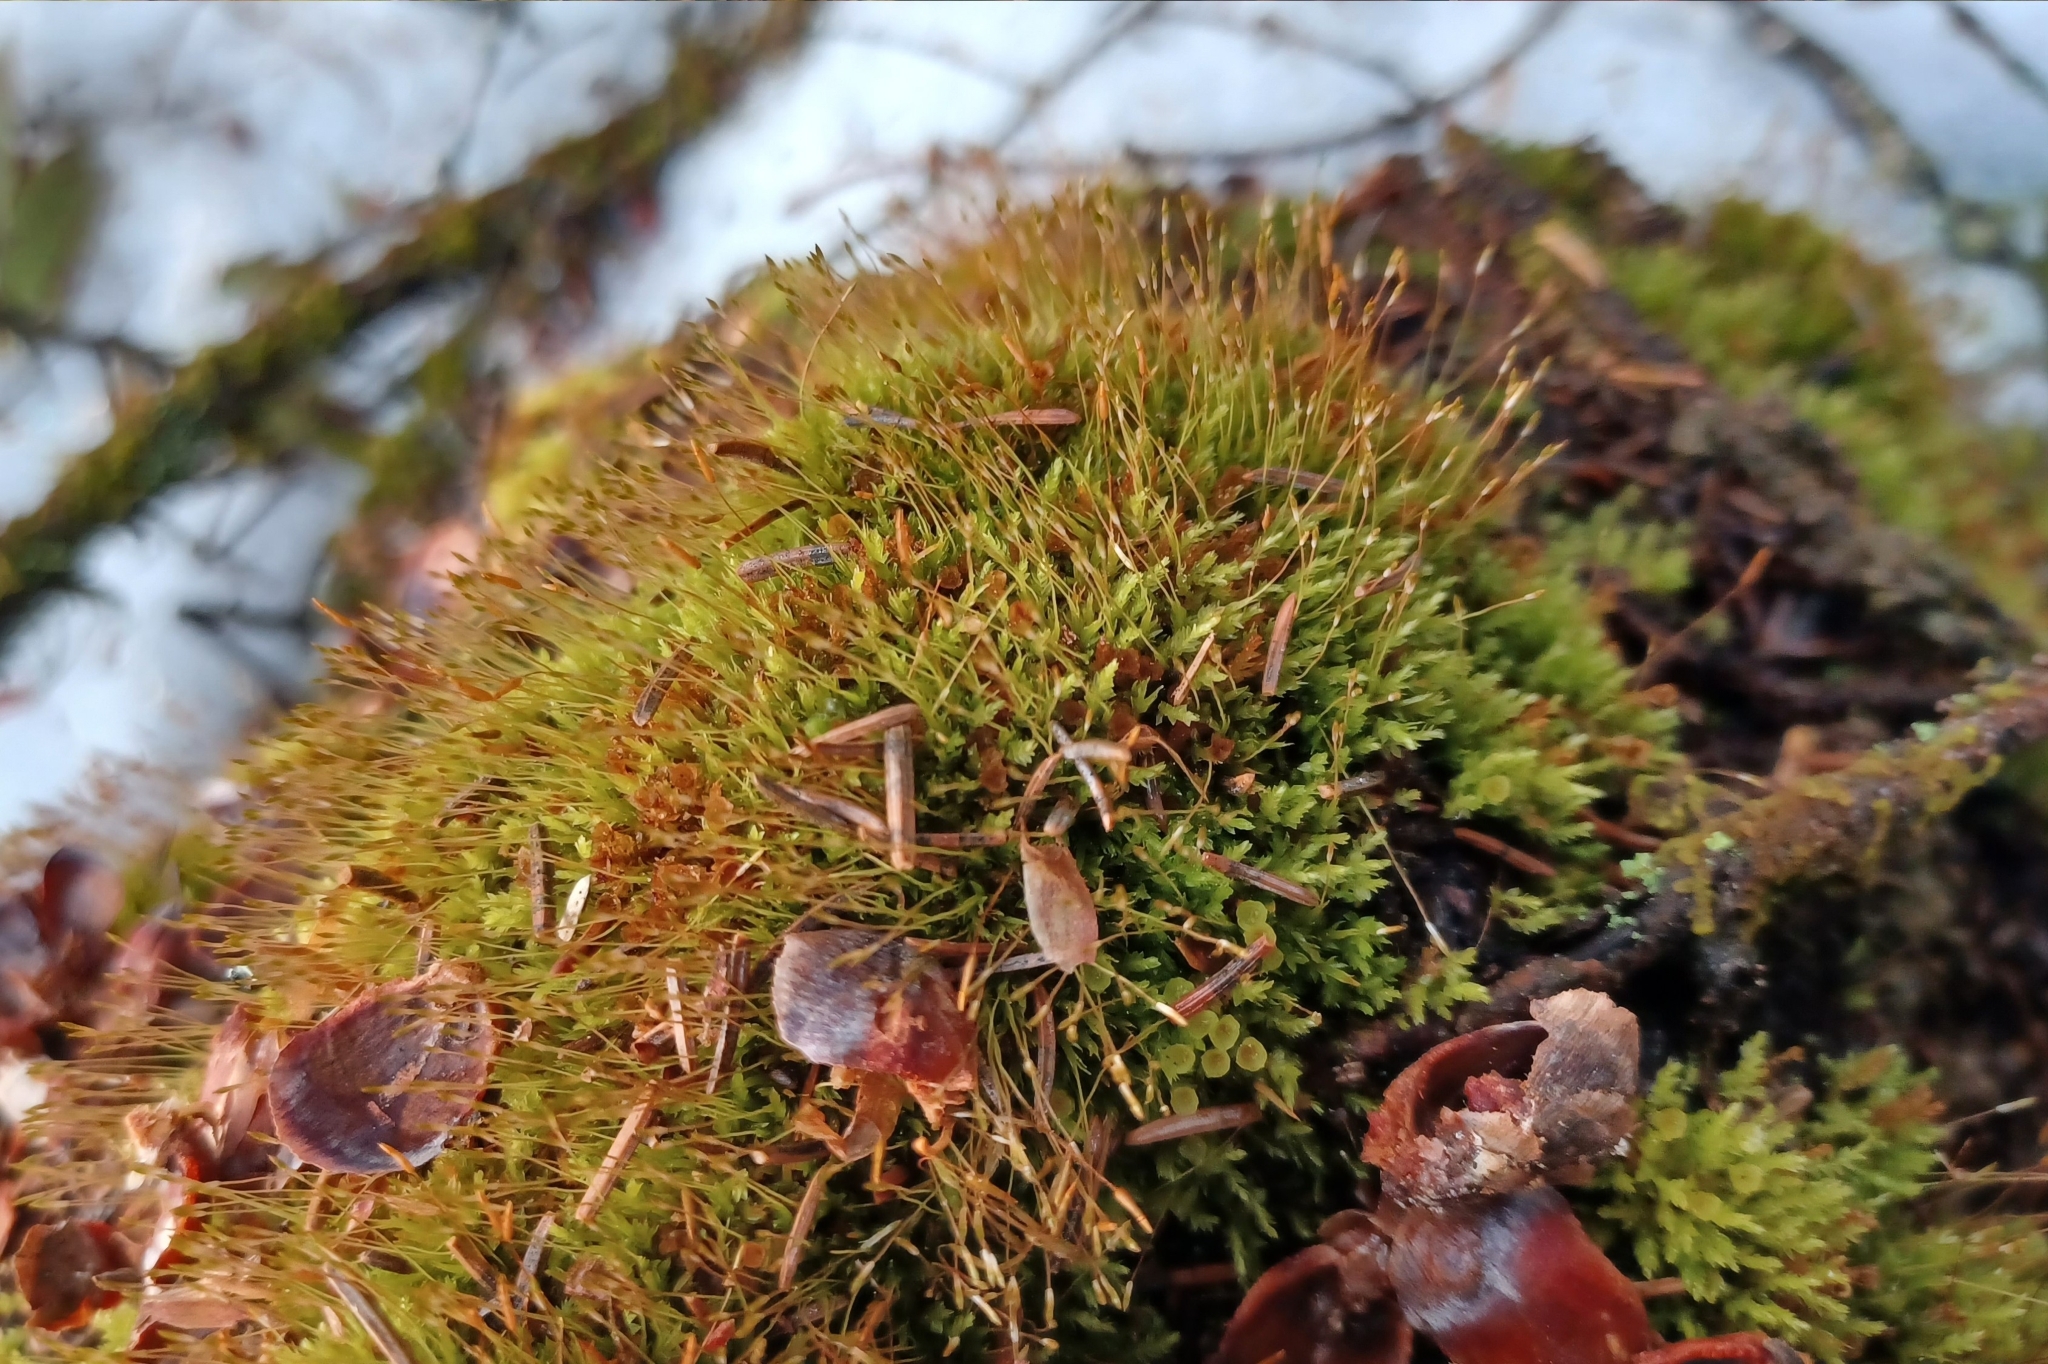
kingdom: Plantae
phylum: Bryophyta
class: Polytrichopsida
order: Tetraphidales
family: Tetraphidaceae
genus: Tetraphis
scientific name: Tetraphis pellucida
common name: Common four-toothed moss
